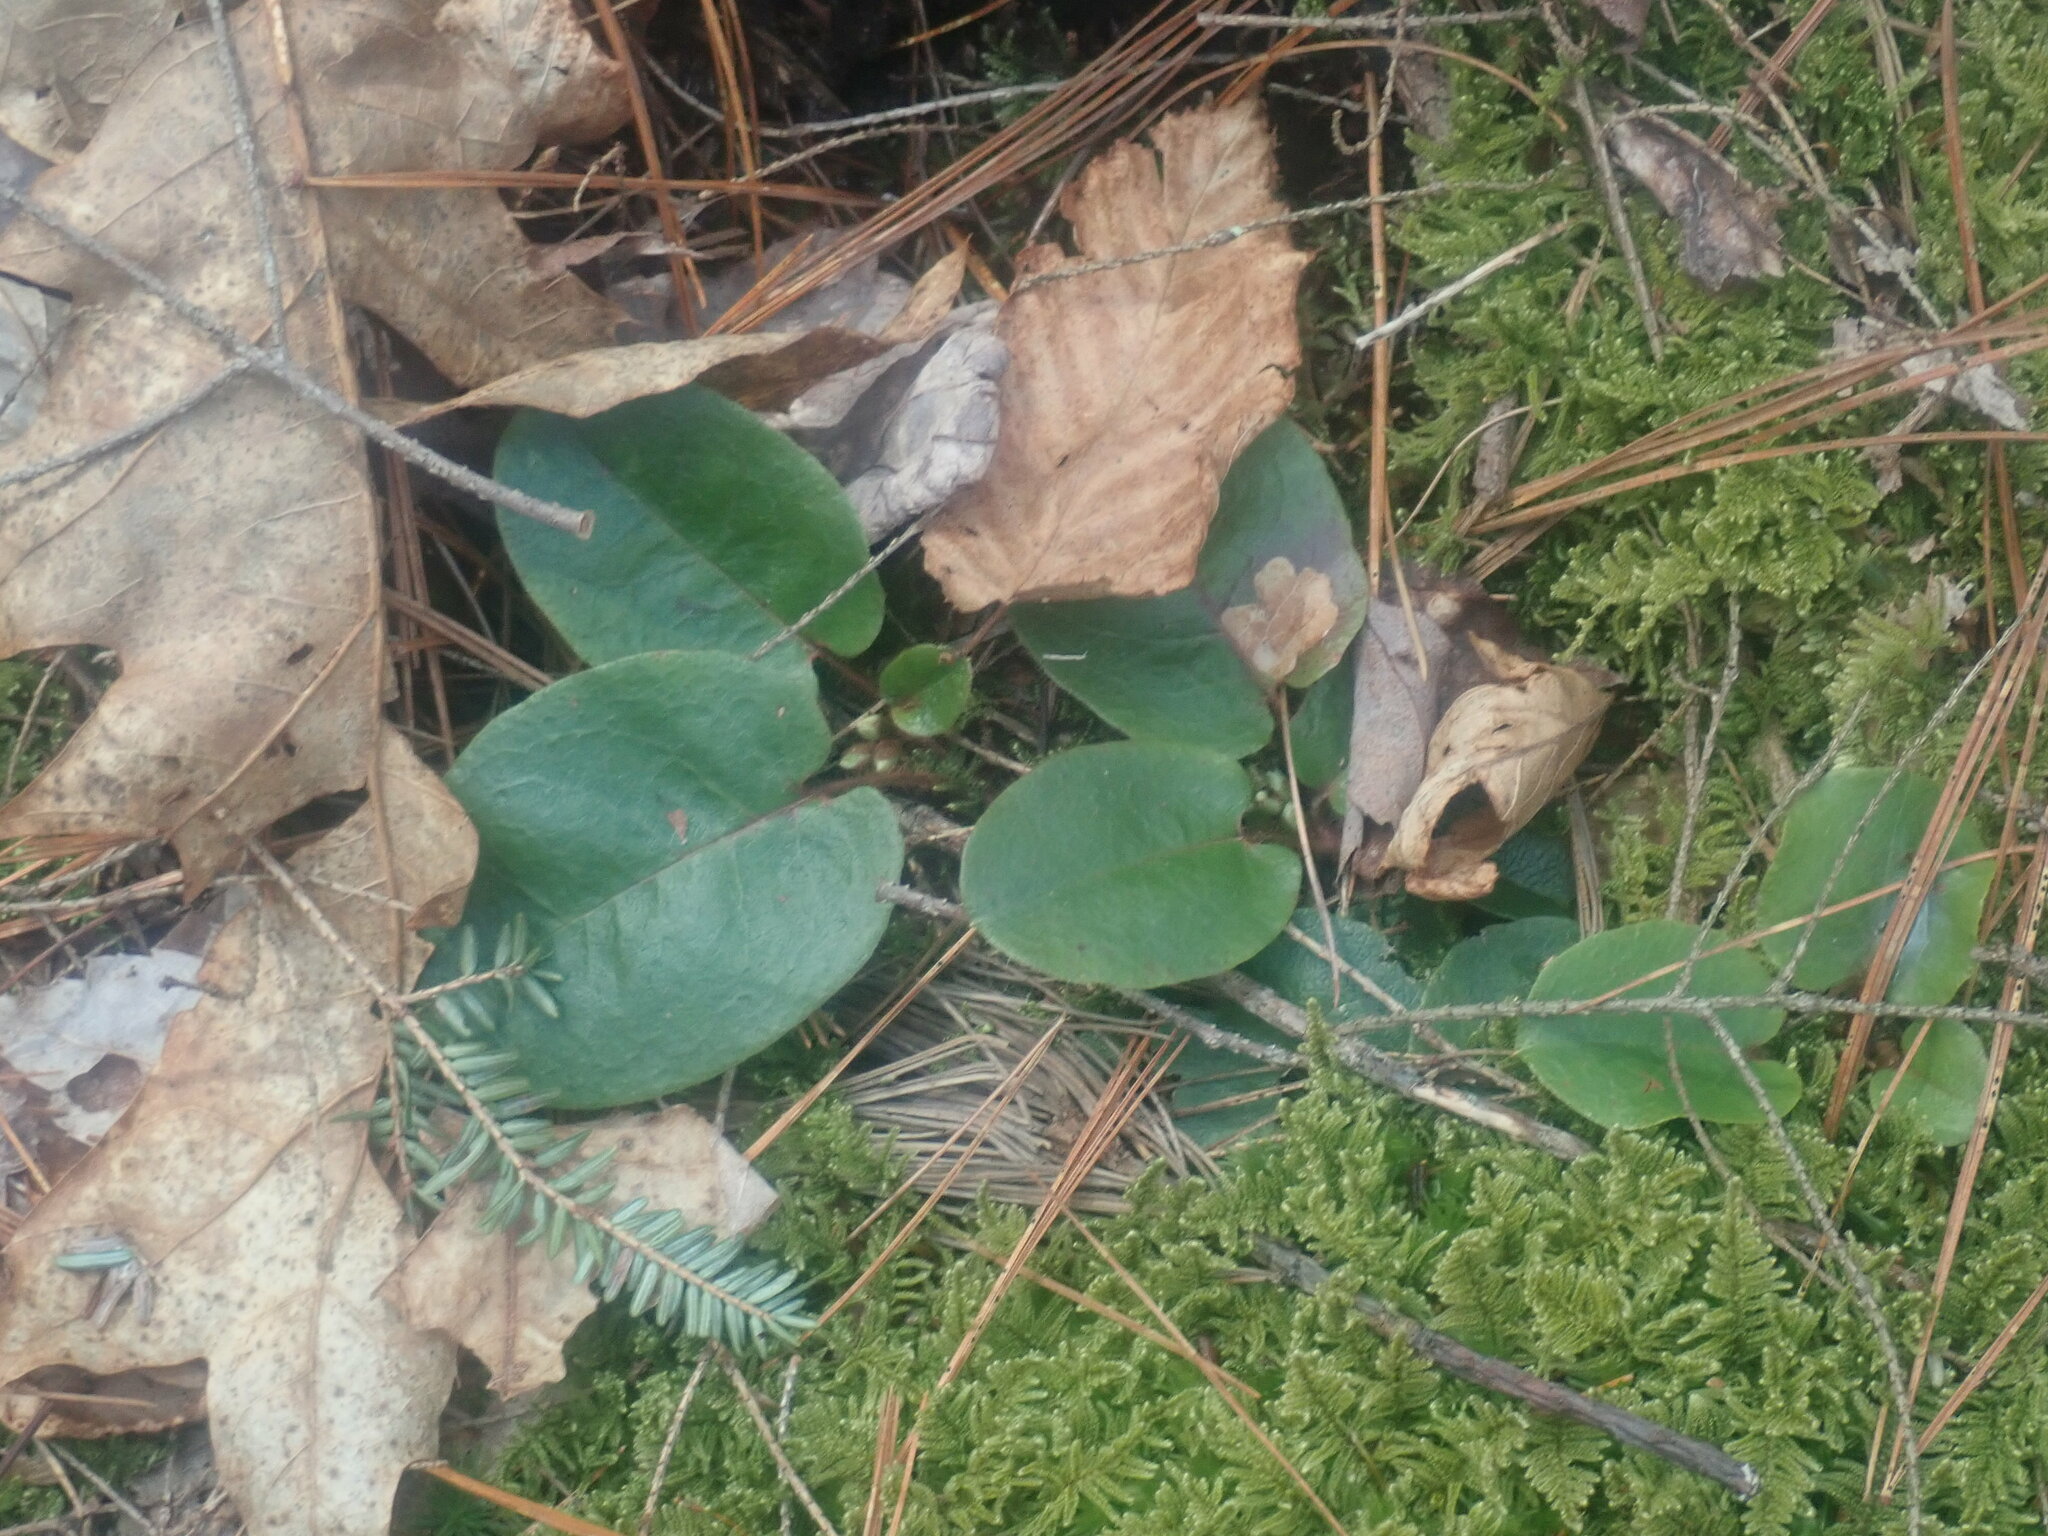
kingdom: Plantae
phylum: Tracheophyta
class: Magnoliopsida
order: Ericales
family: Ericaceae
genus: Epigaea
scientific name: Epigaea repens
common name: Gravelroot
